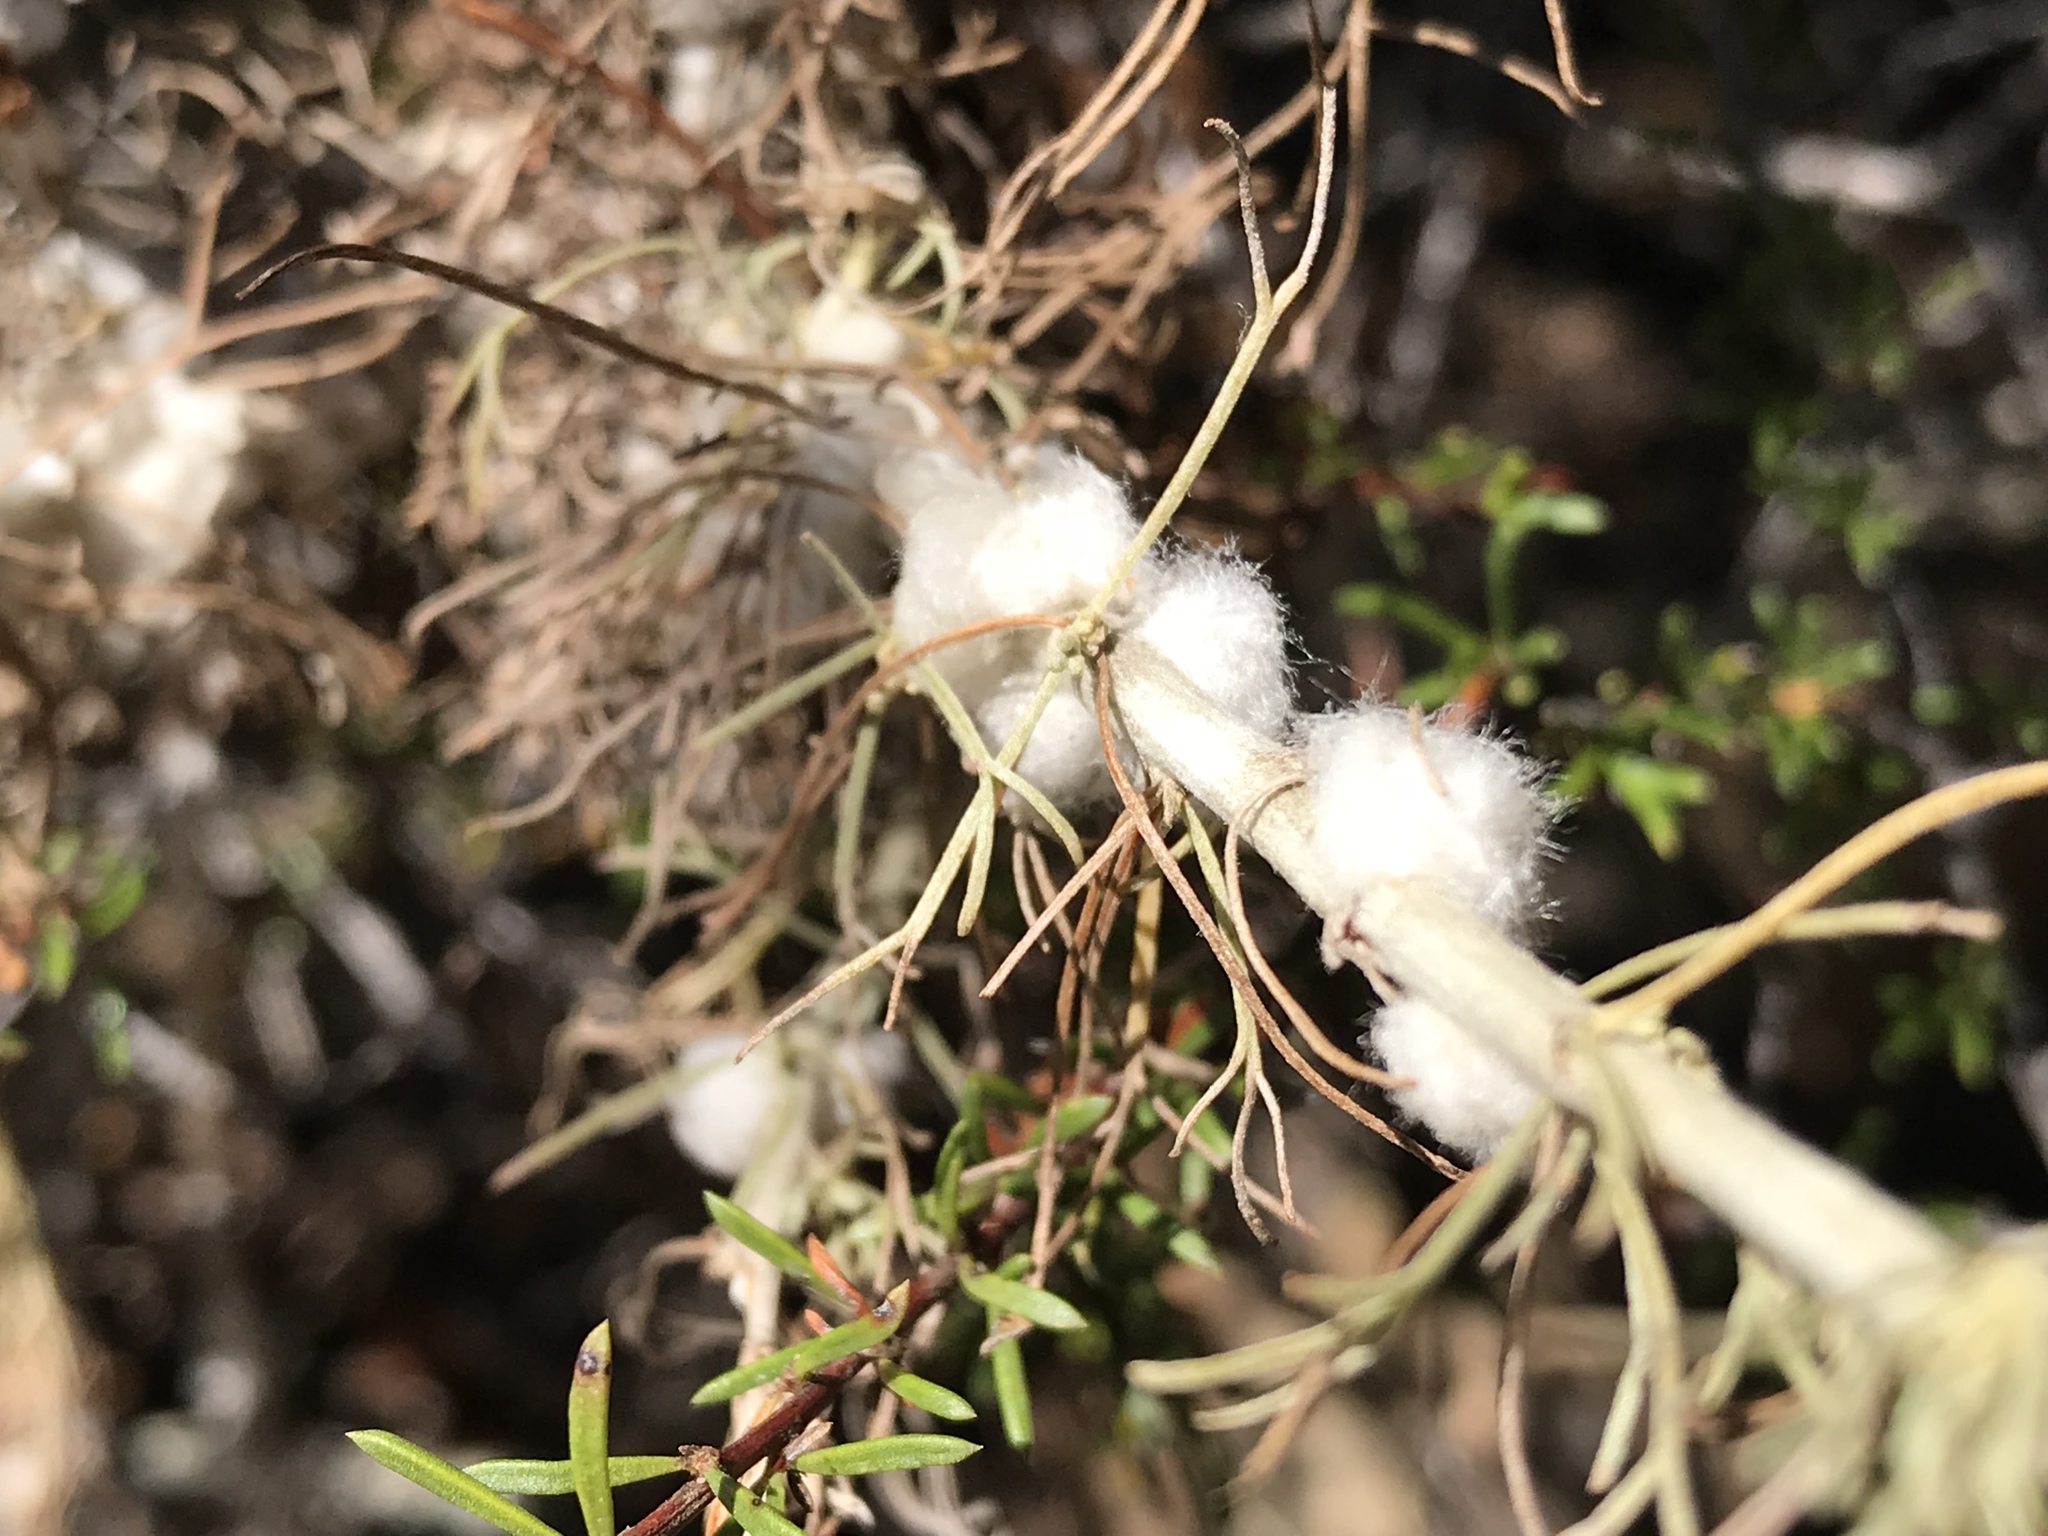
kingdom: Animalia
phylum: Arthropoda
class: Insecta
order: Diptera
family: Cecidomyiidae
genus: Rhopalomyia
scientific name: Rhopalomyia floccosa
